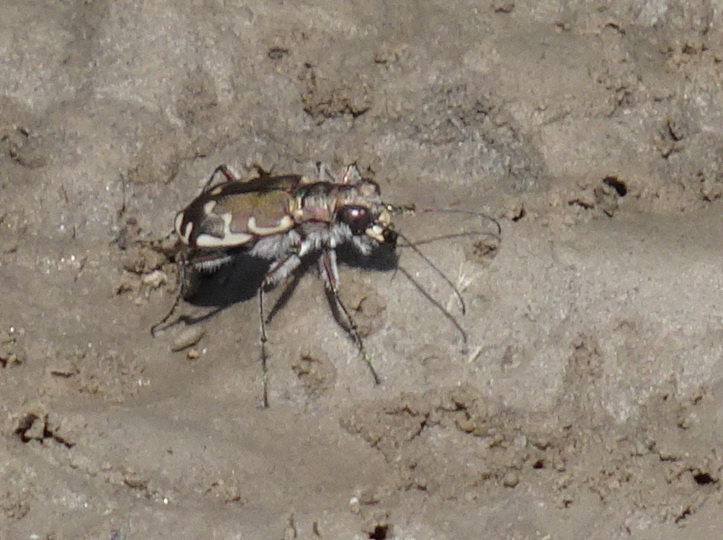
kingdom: Animalia
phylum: Arthropoda
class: Insecta
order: Coleoptera
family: Carabidae
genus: Cicindela
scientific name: Cicindela repanda
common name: Bronzed tiger beetle
